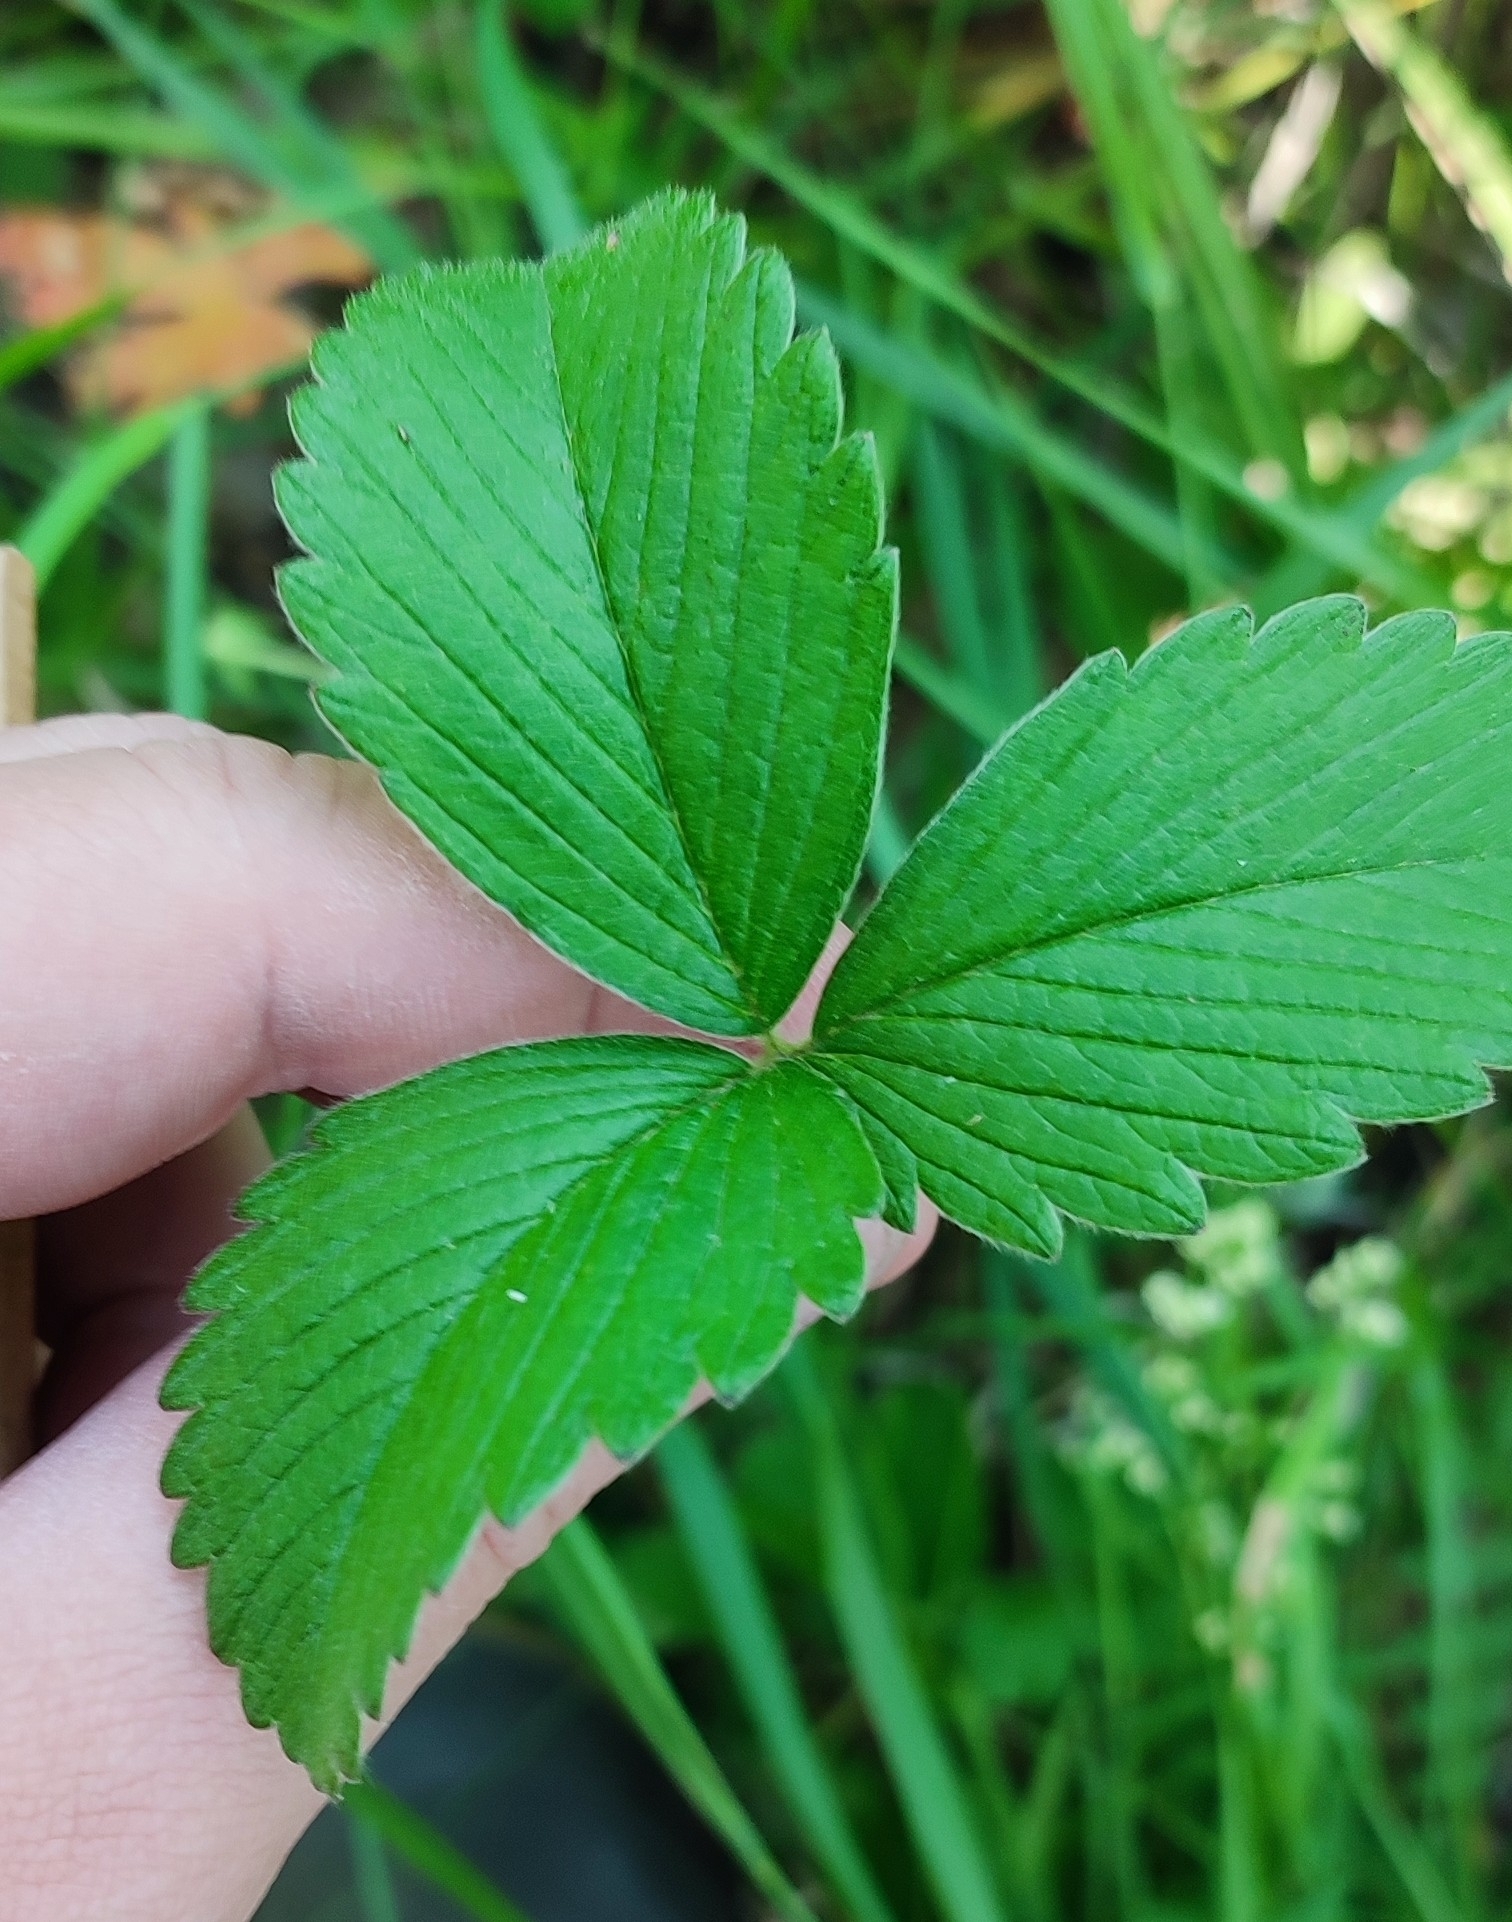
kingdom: Plantae
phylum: Tracheophyta
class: Magnoliopsida
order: Rosales
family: Rosaceae
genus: Fragaria
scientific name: Fragaria viridis
